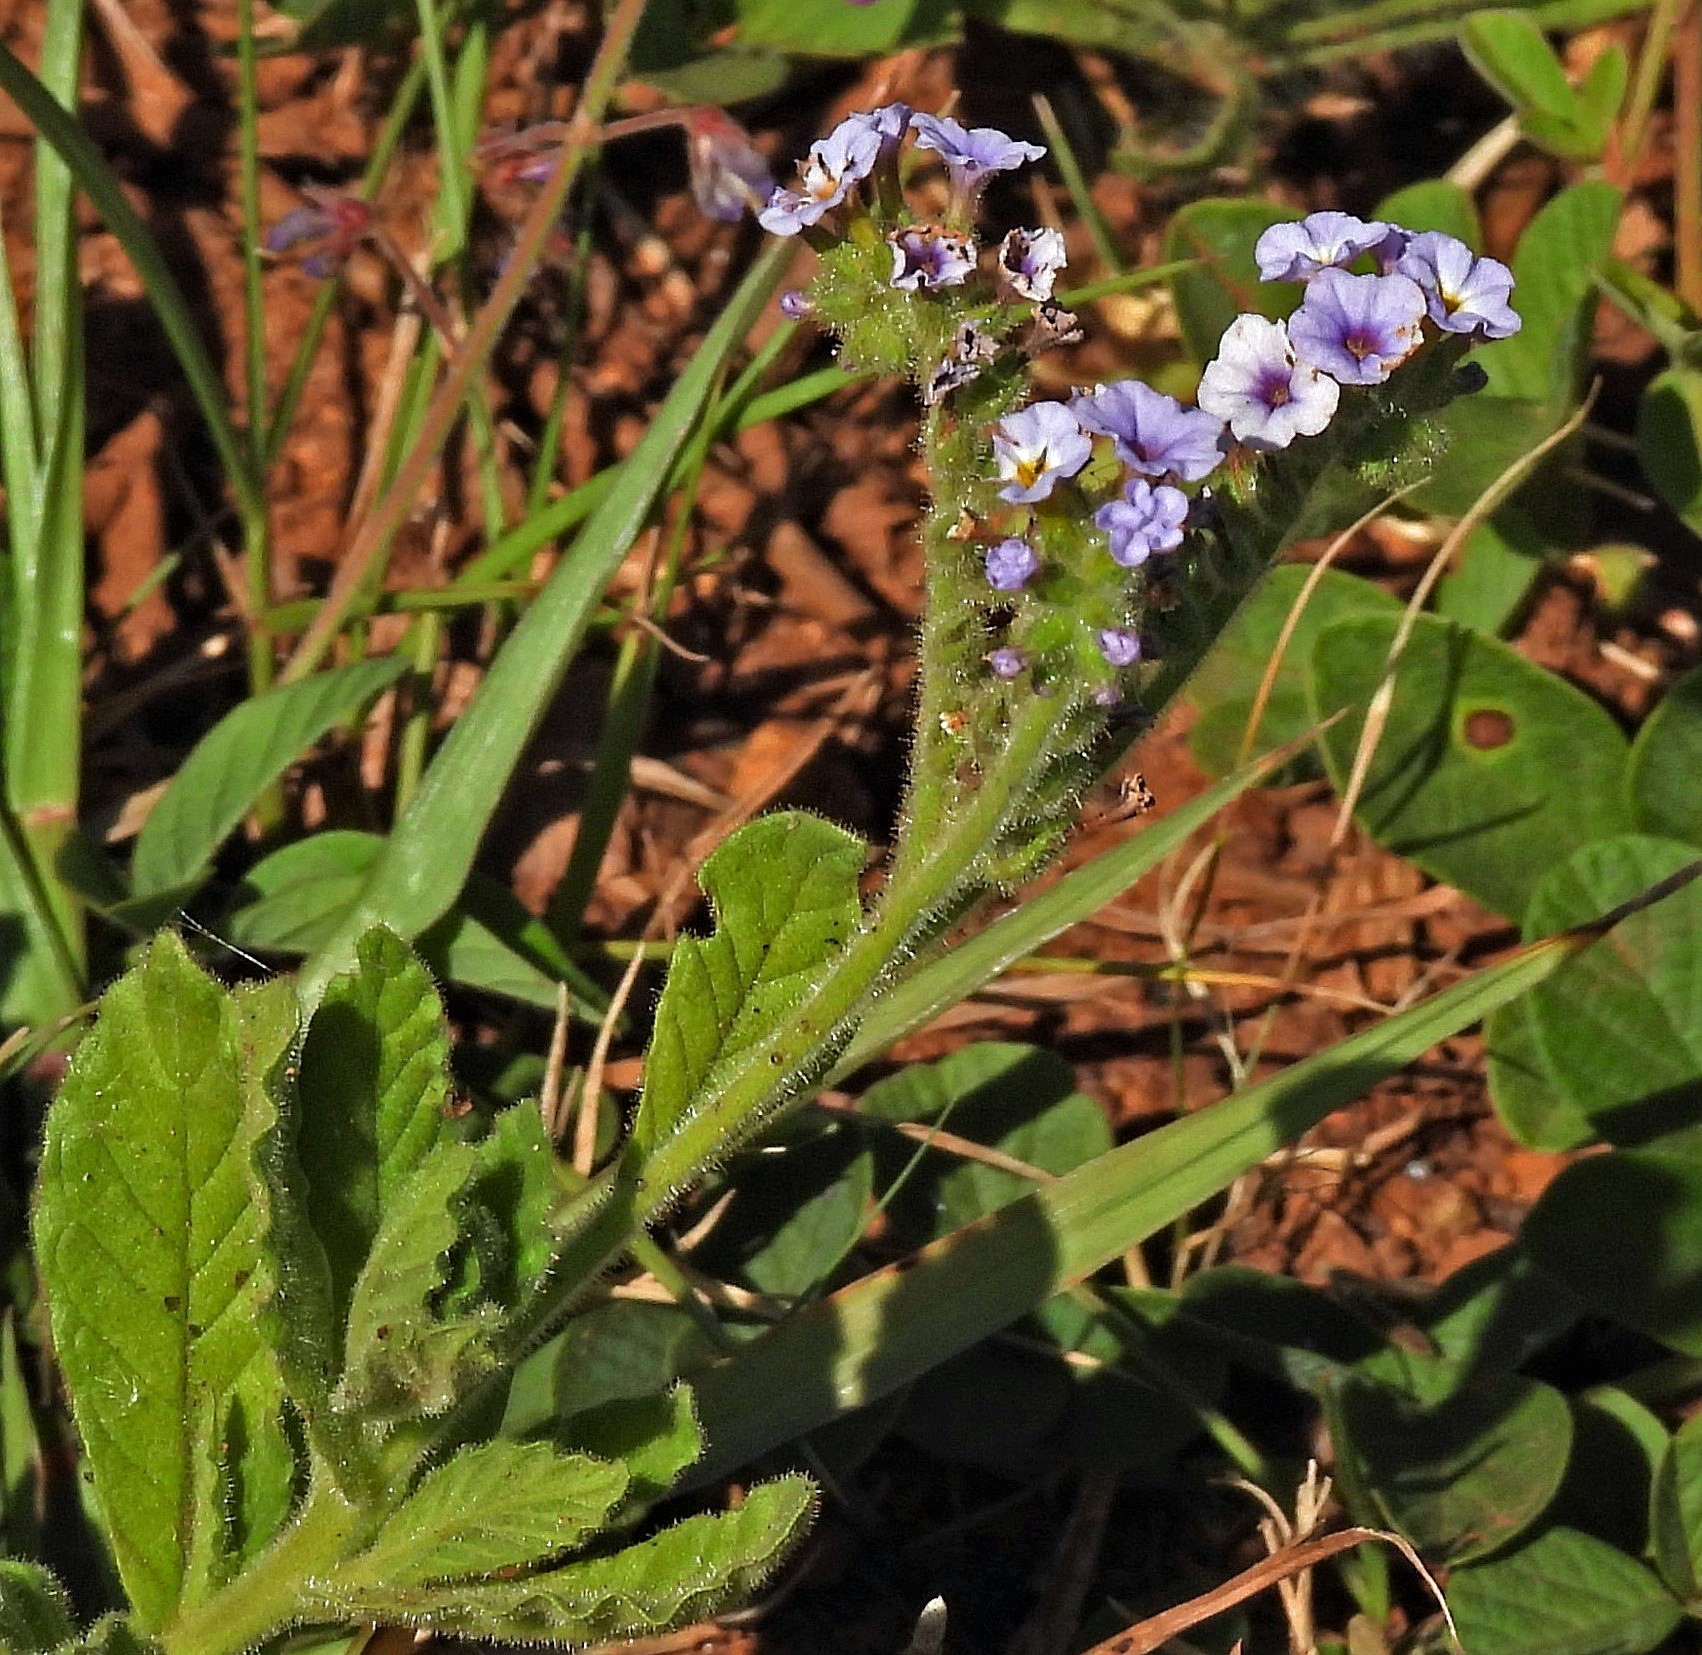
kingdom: Plantae
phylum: Tracheophyta
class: Magnoliopsida
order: Boraginales
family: Heliotropiaceae
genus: Heliotropium
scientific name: Heliotropium amplexicaule
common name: Clasping heliotrope
